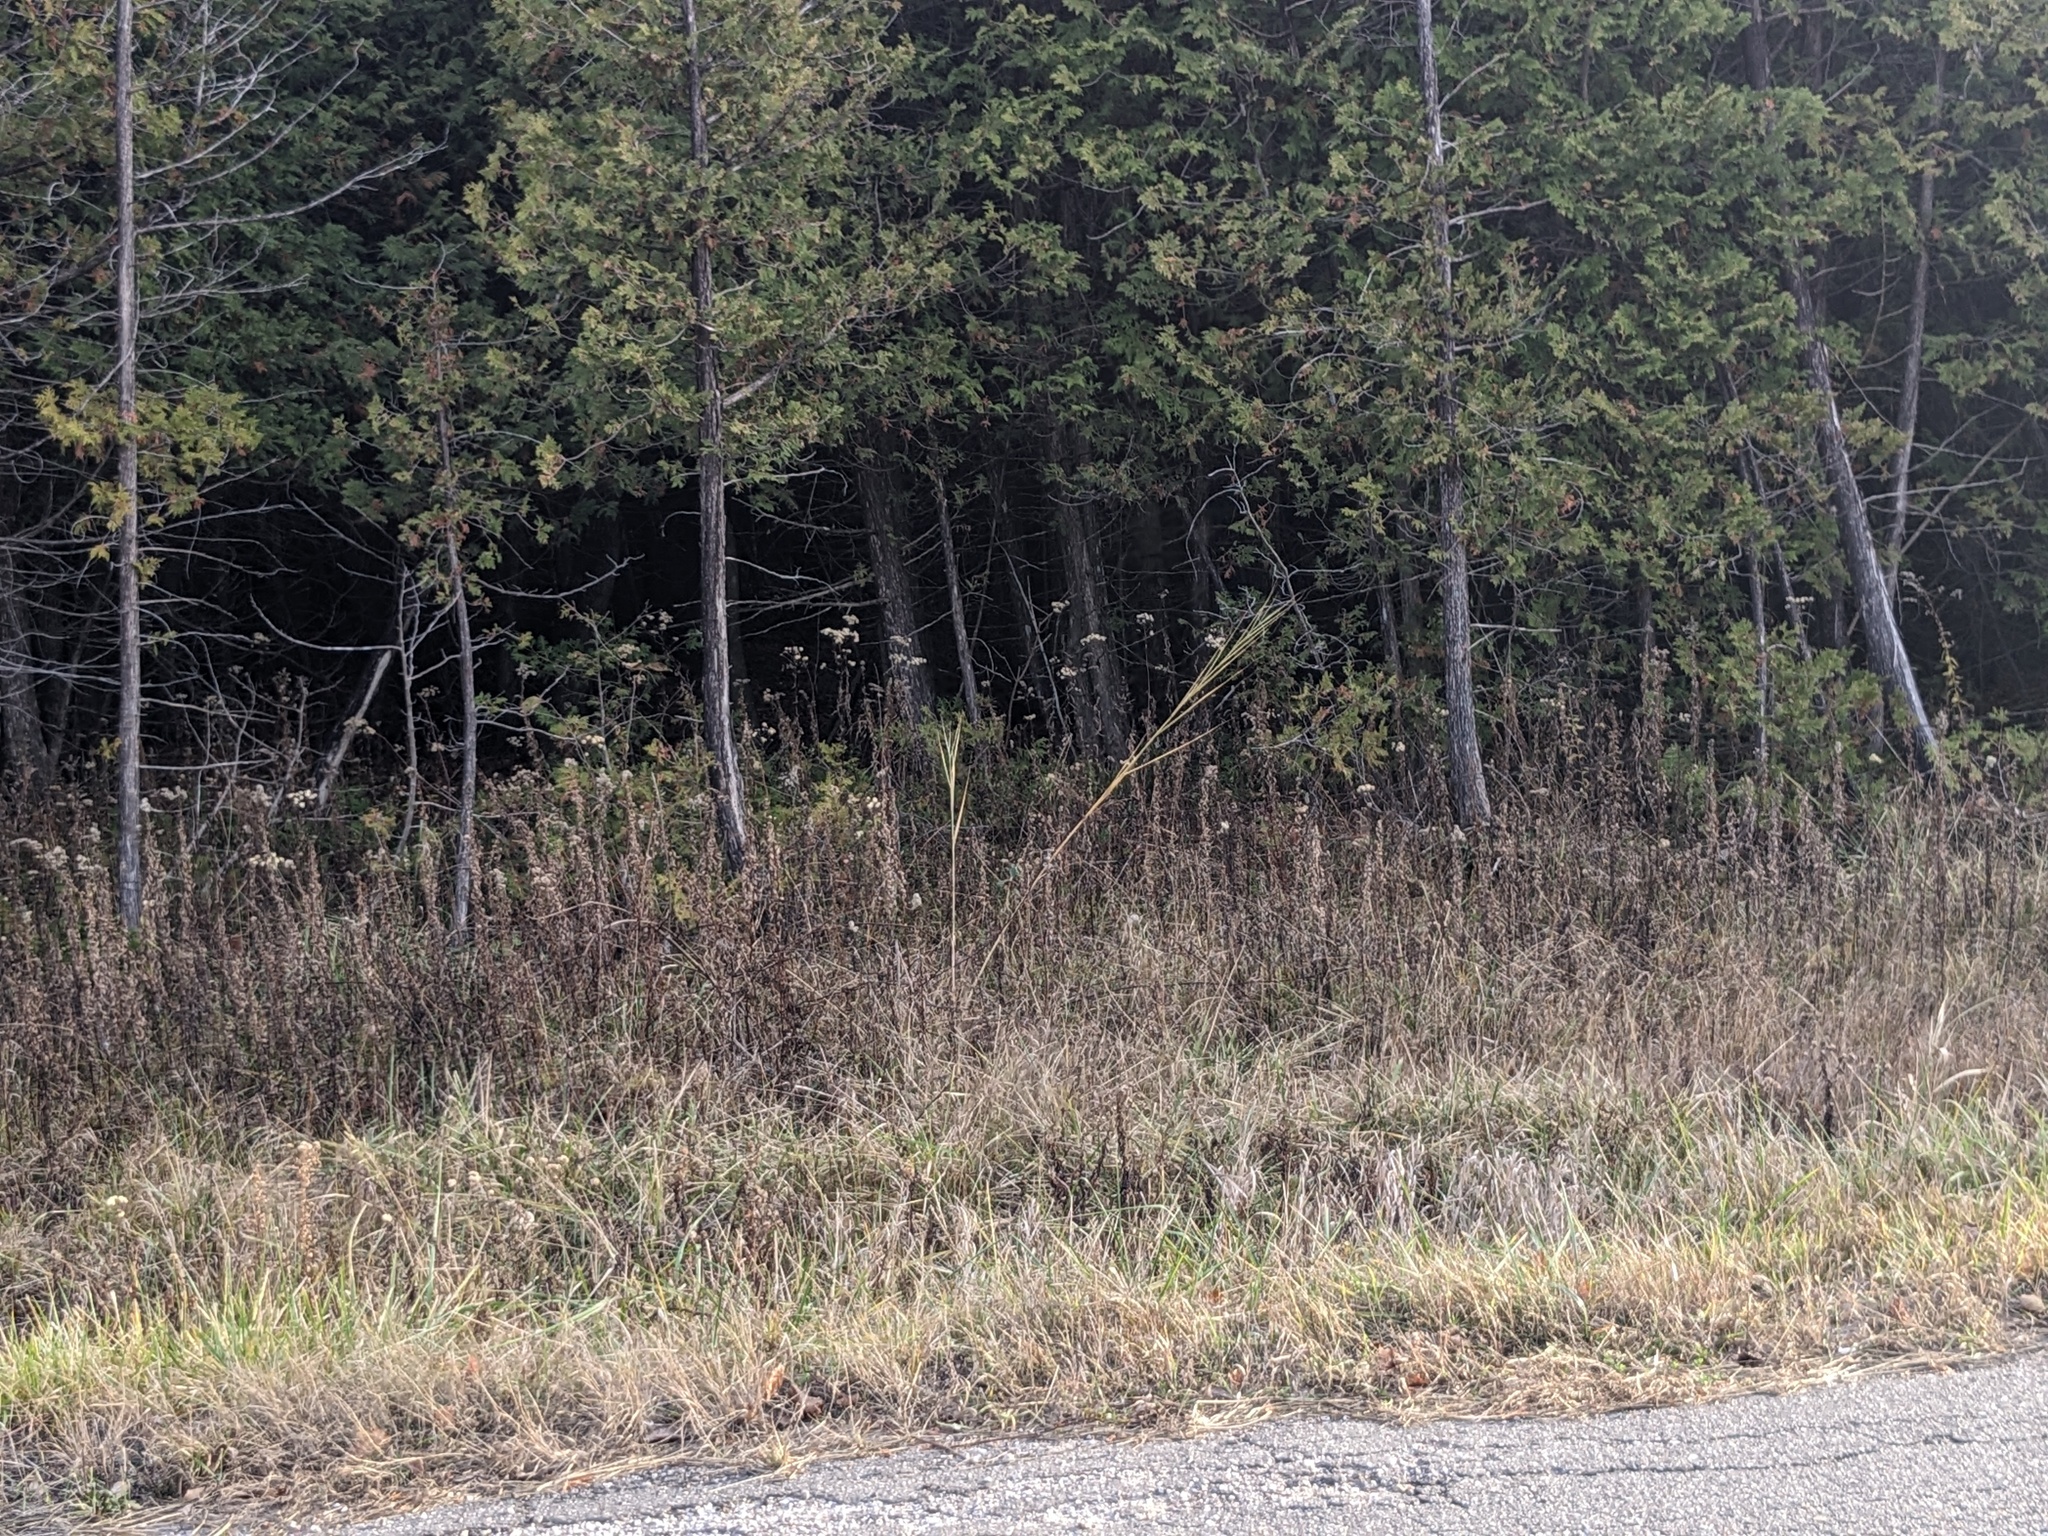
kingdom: Plantae
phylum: Tracheophyta
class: Liliopsida
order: Poales
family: Poaceae
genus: Phragmites
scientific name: Phragmites australis
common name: Common reed
